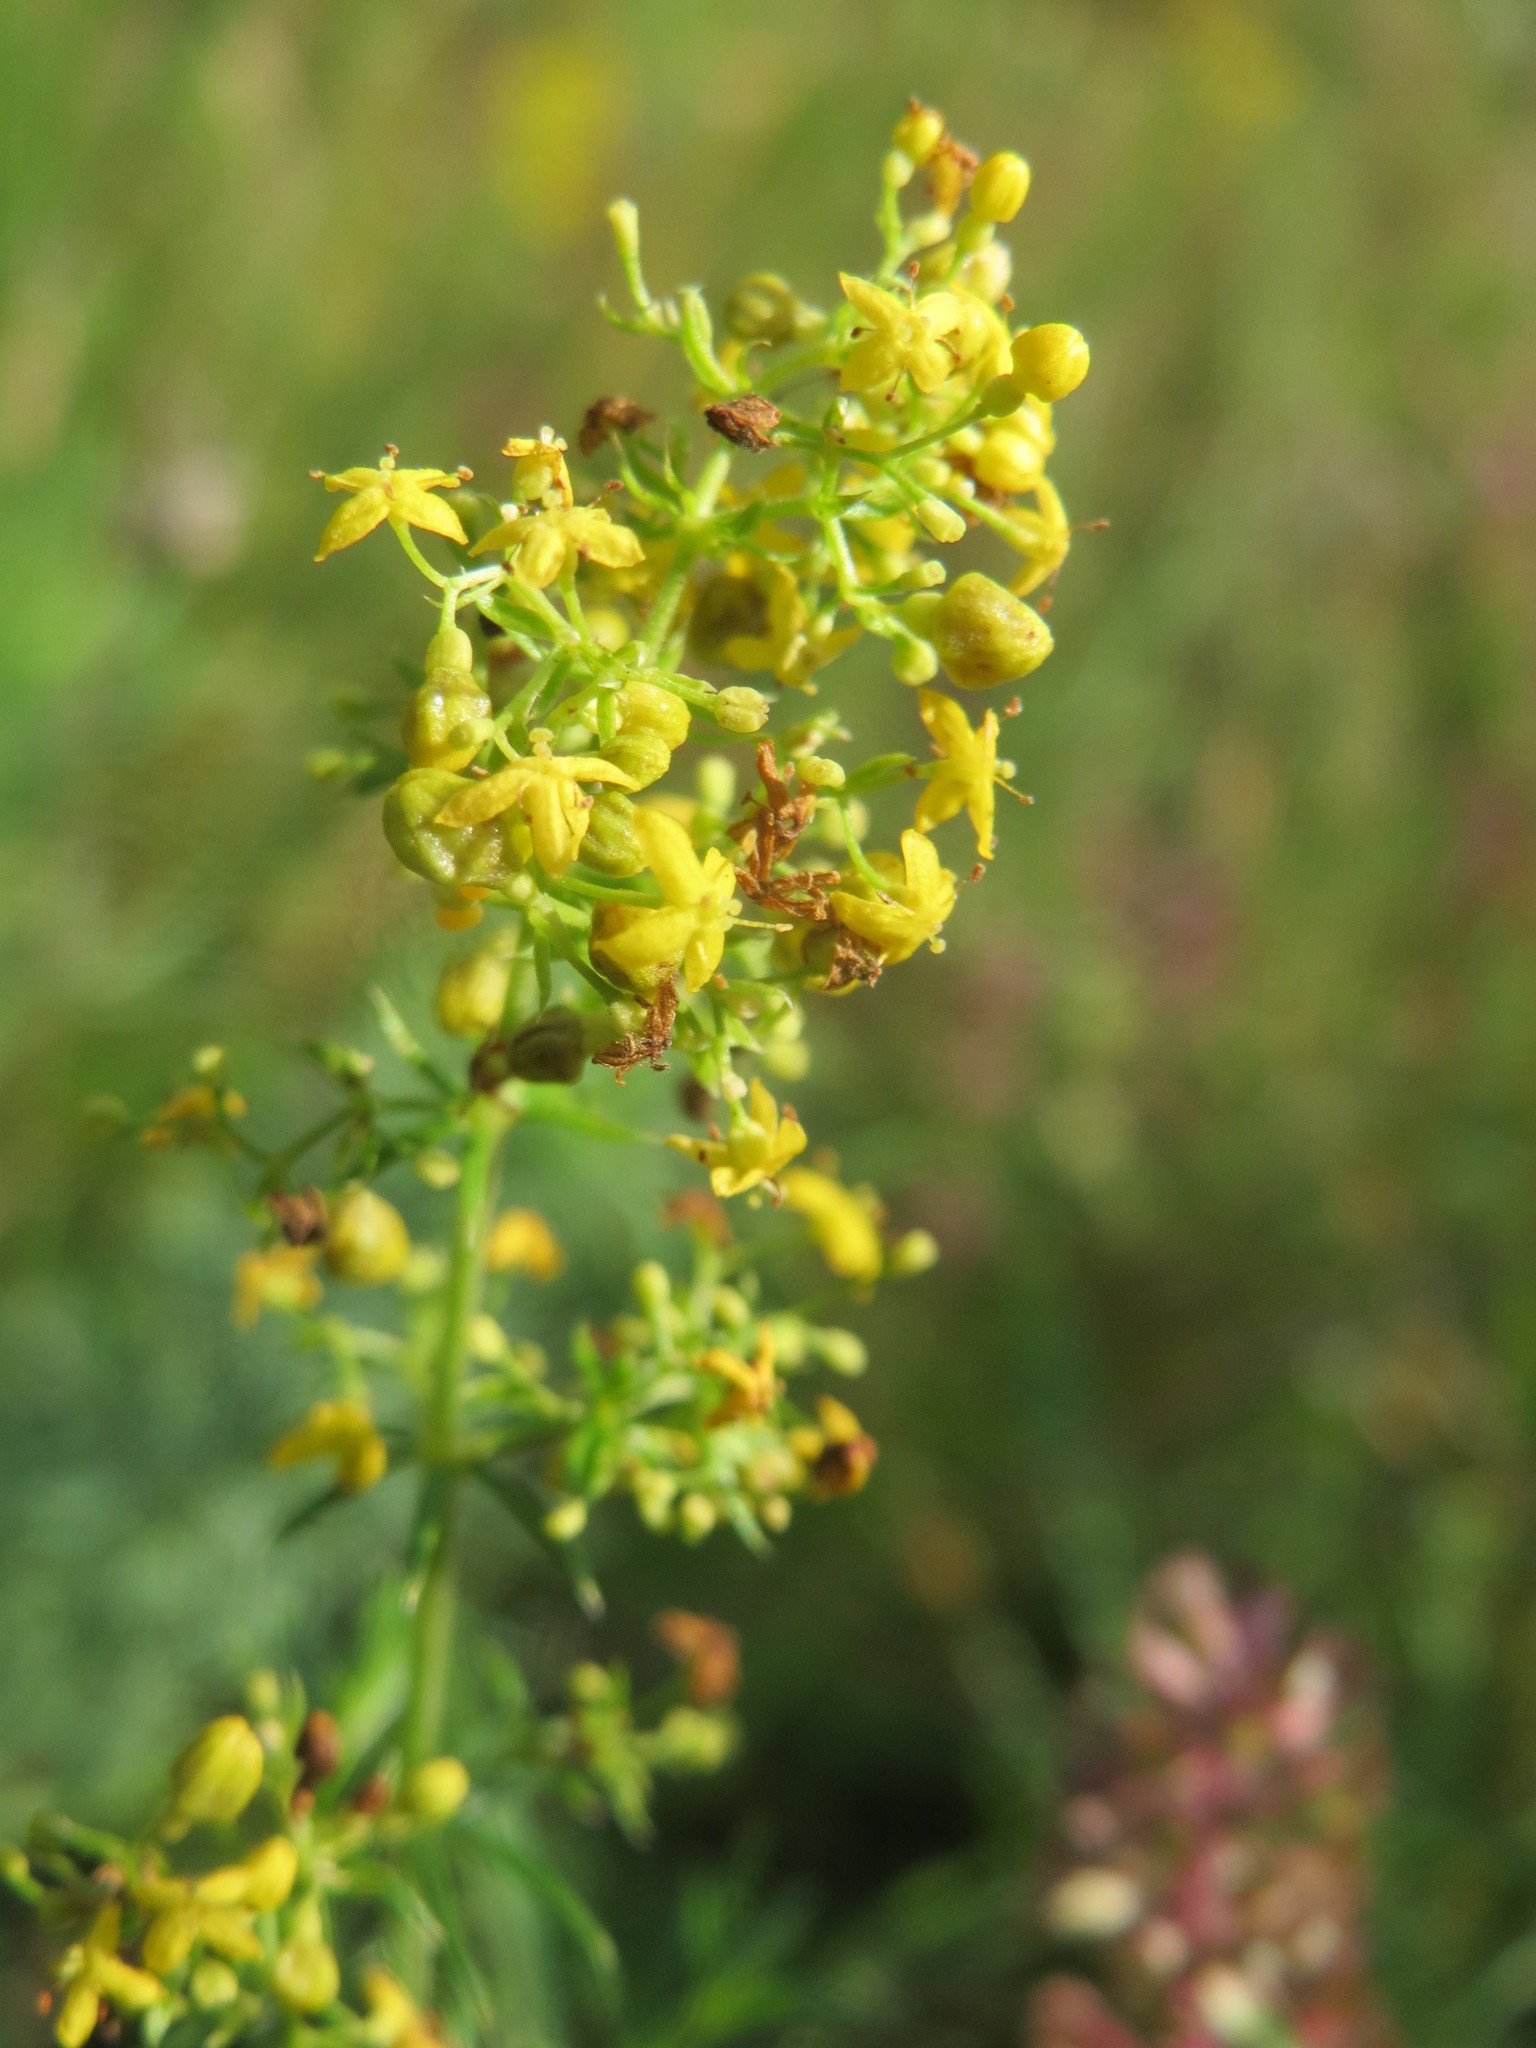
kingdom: Plantae
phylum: Tracheophyta
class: Magnoliopsida
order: Gentianales
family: Rubiaceae
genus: Galium
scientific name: Galium verum
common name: Lady's bedstraw
